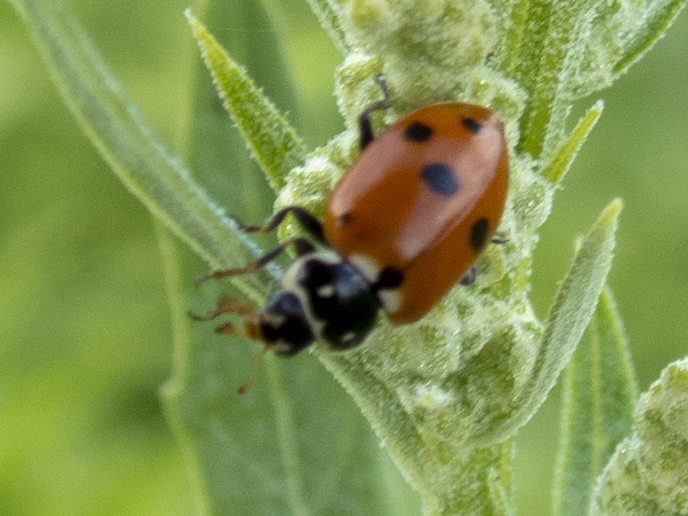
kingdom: Animalia
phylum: Arthropoda
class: Insecta
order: Coleoptera
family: Coccinellidae
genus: Hippodamia
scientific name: Hippodamia variegata
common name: Ladybird beetle
